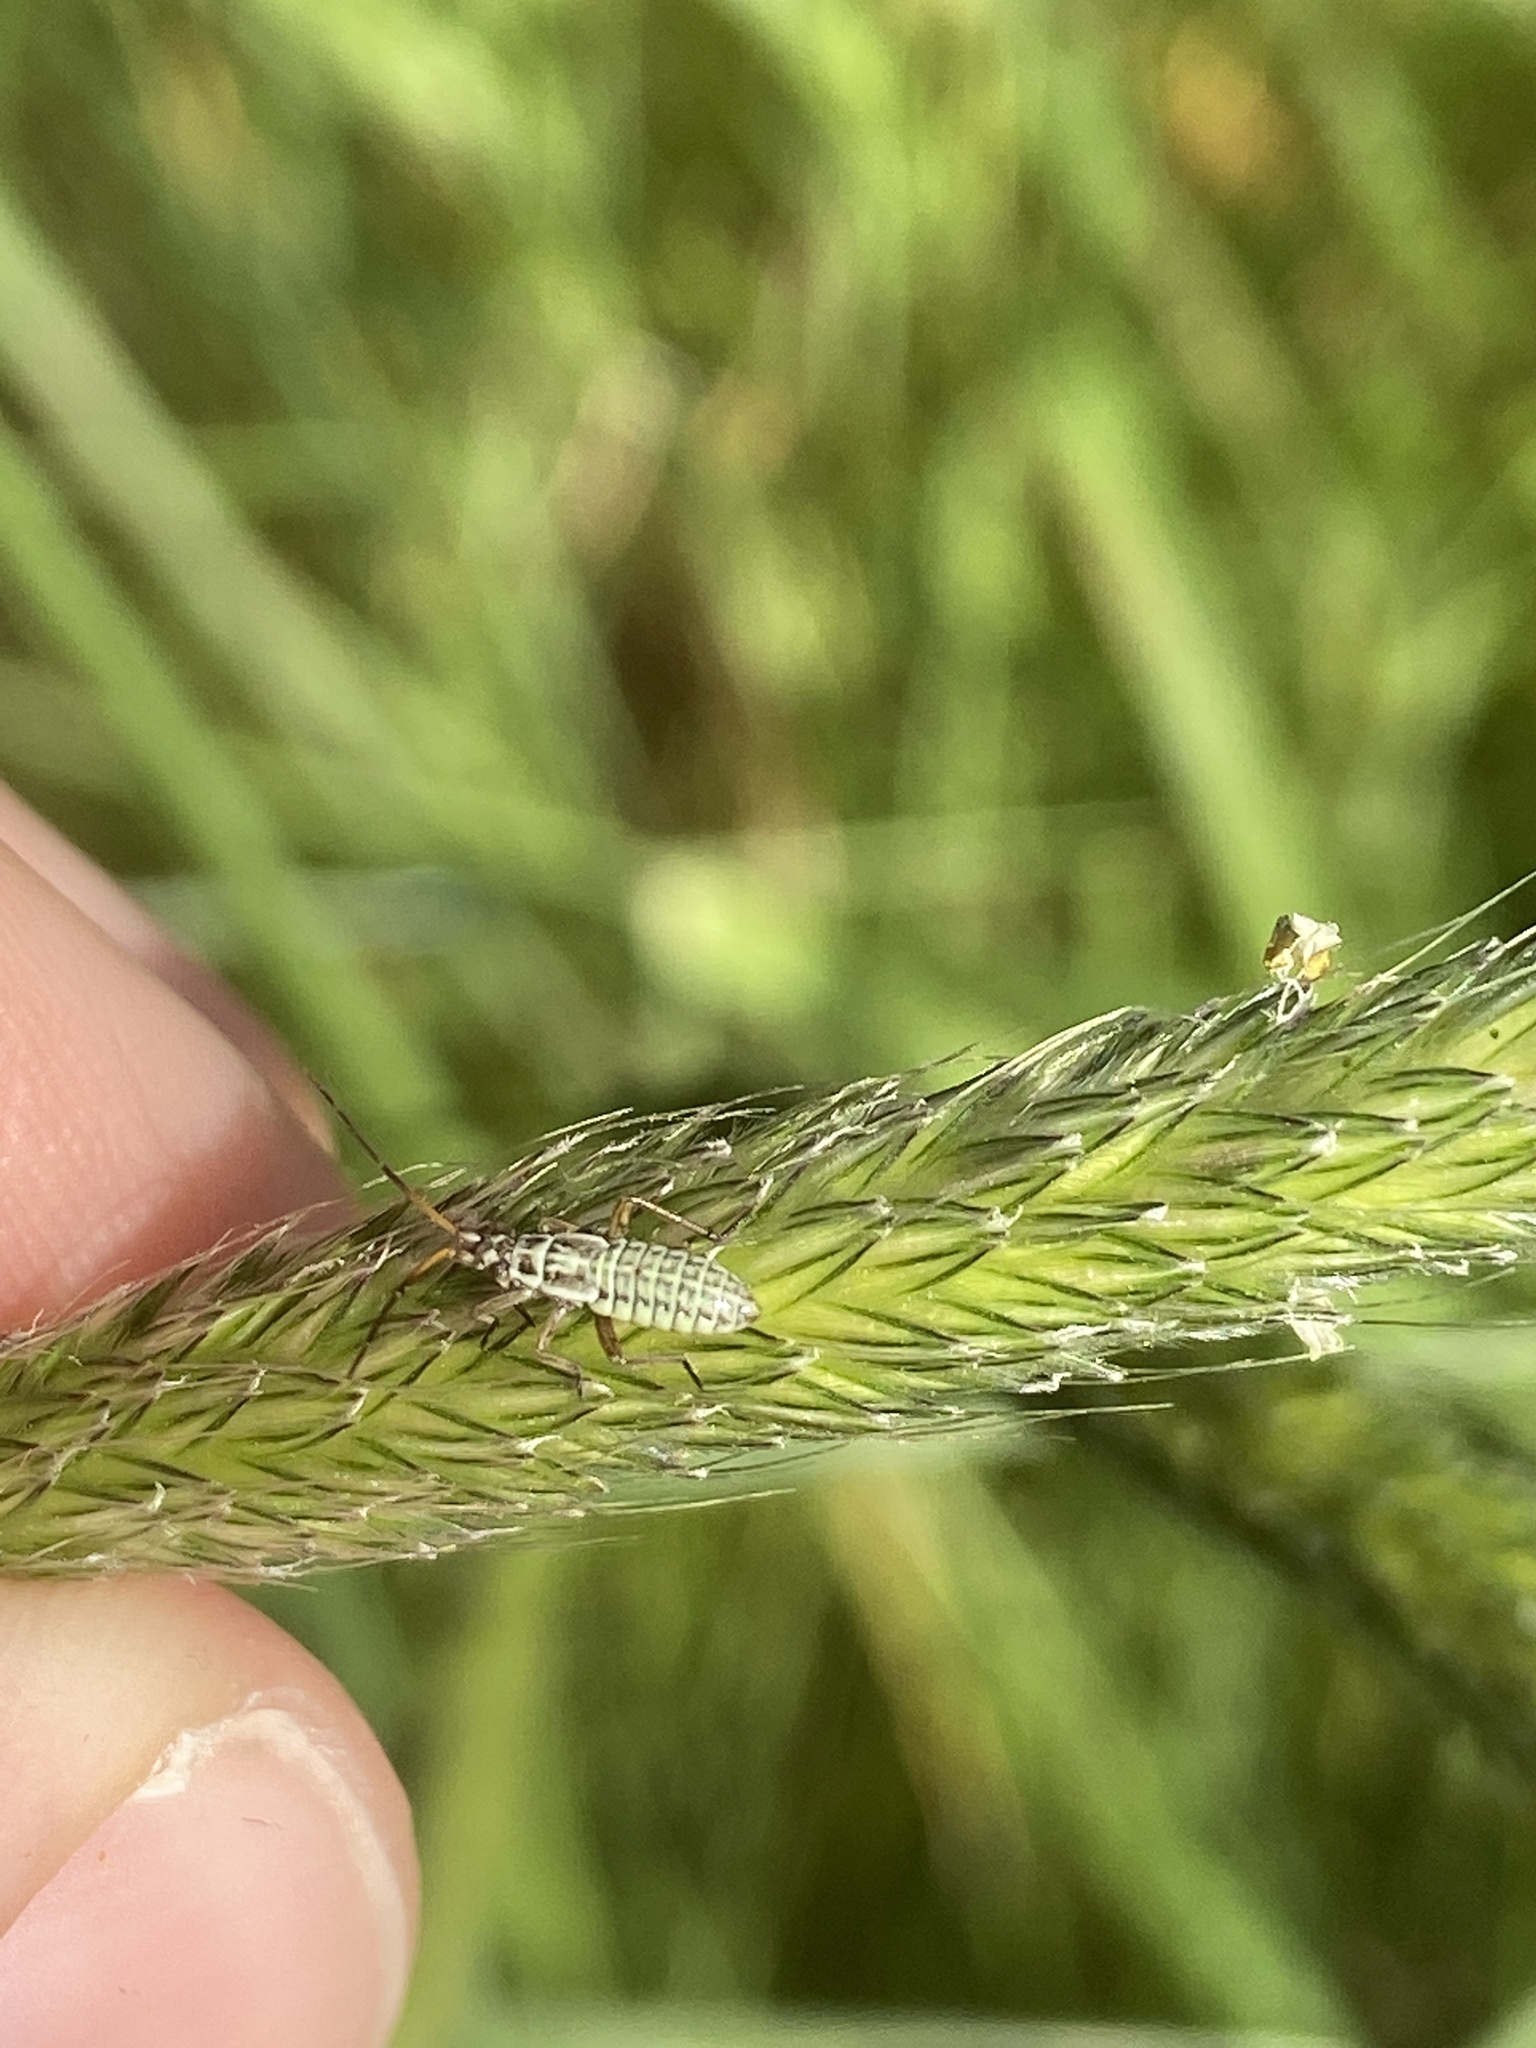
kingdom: Animalia
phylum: Arthropoda
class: Insecta
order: Hemiptera
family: Miridae
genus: Leptopterna
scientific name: Leptopterna dolabrata
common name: Meadow plant bug
